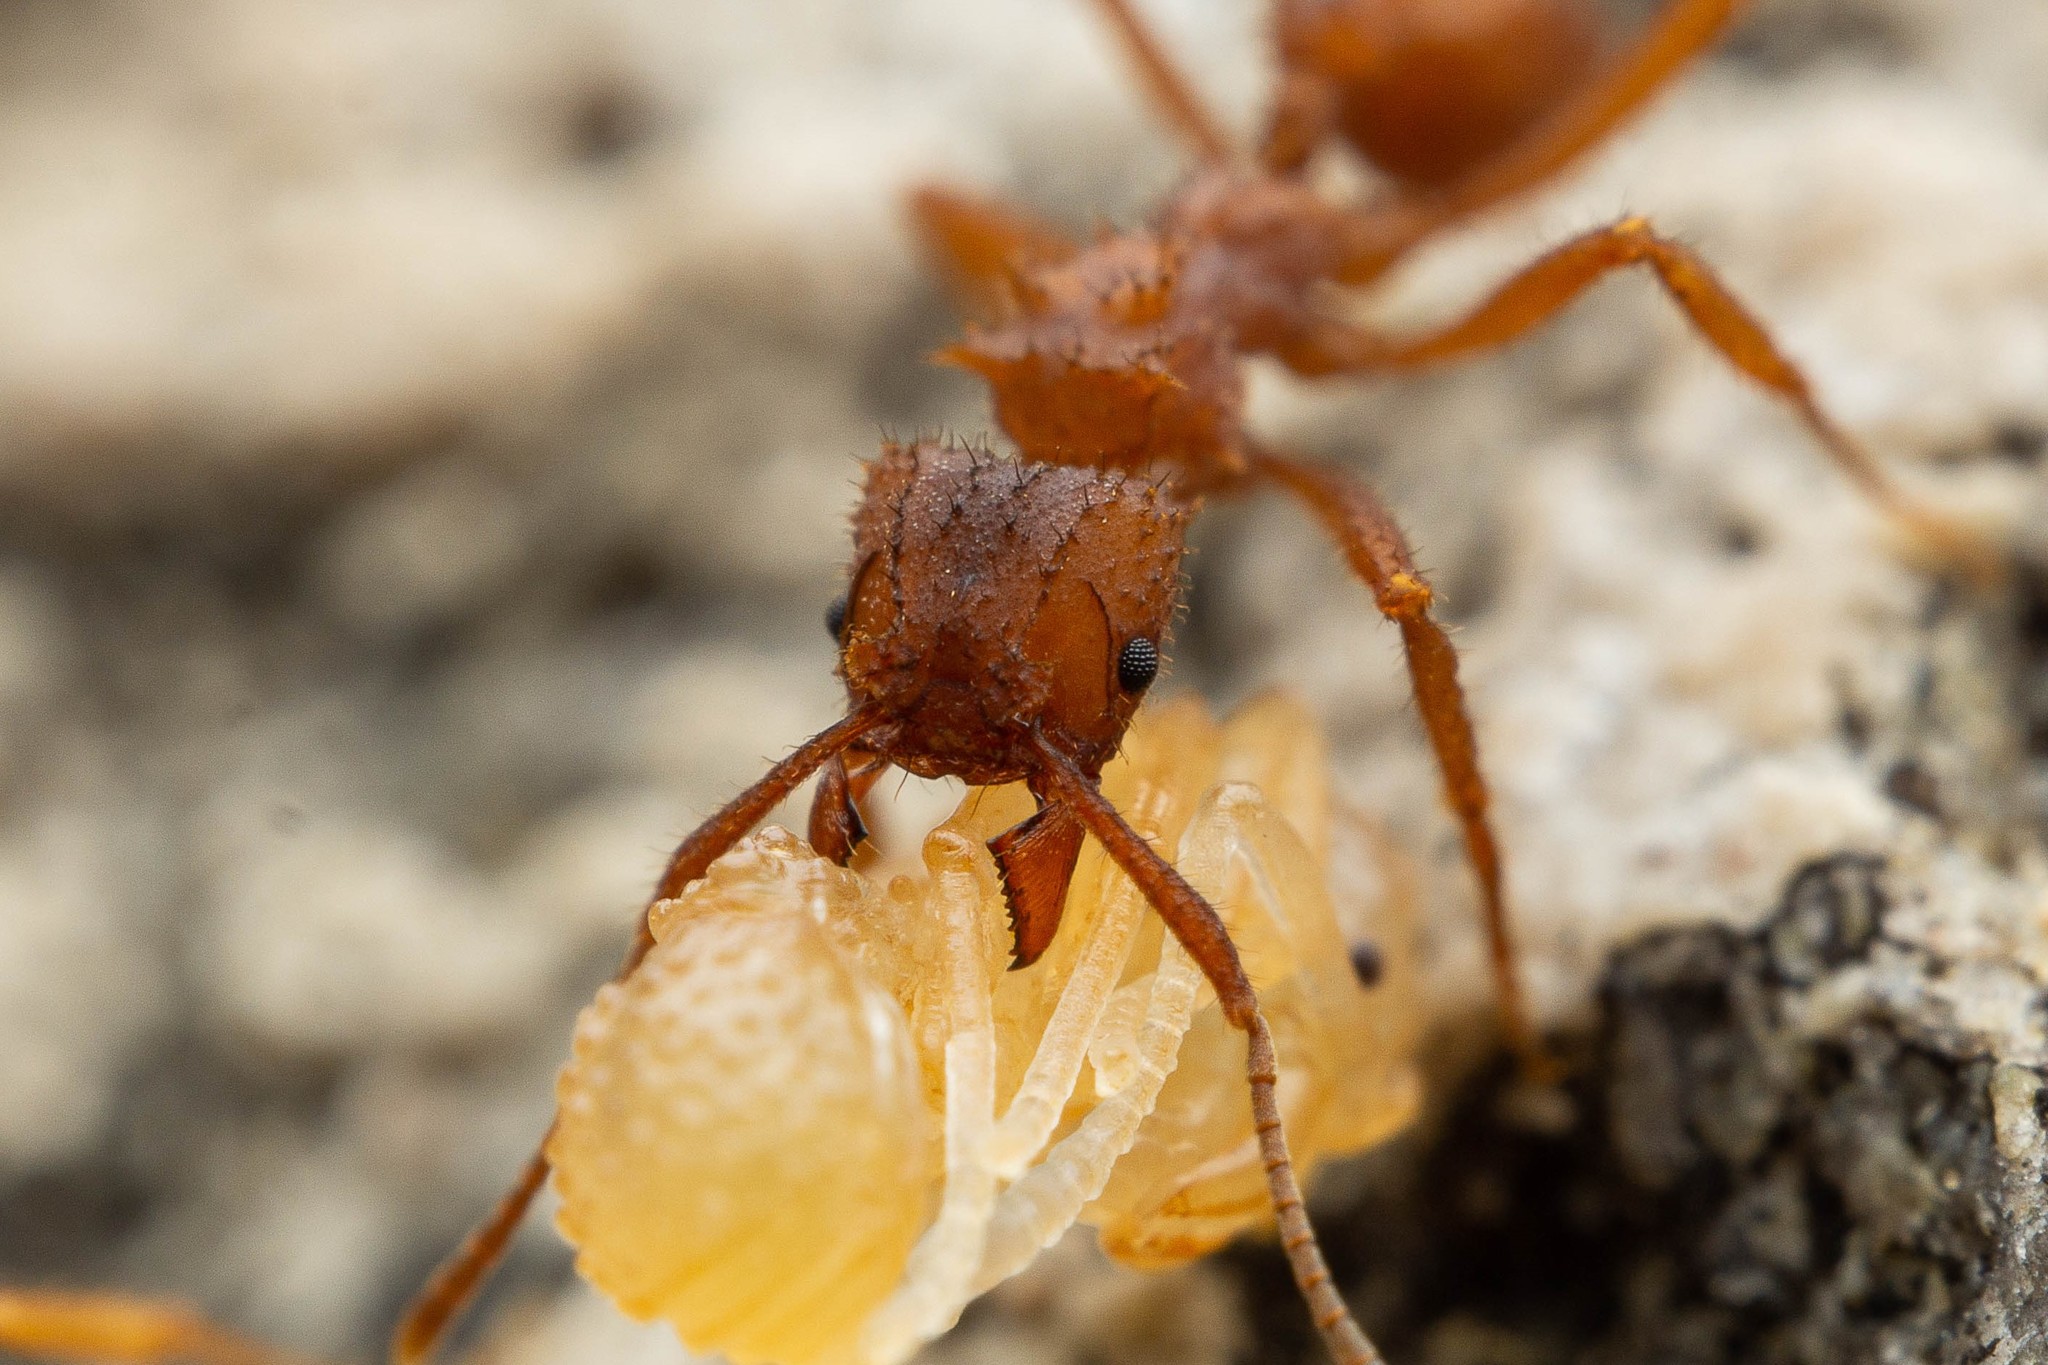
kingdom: Animalia
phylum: Arthropoda
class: Insecta
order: Hymenoptera
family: Formicidae
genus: Trachymyrmex
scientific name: Trachymyrmex arizonensis
